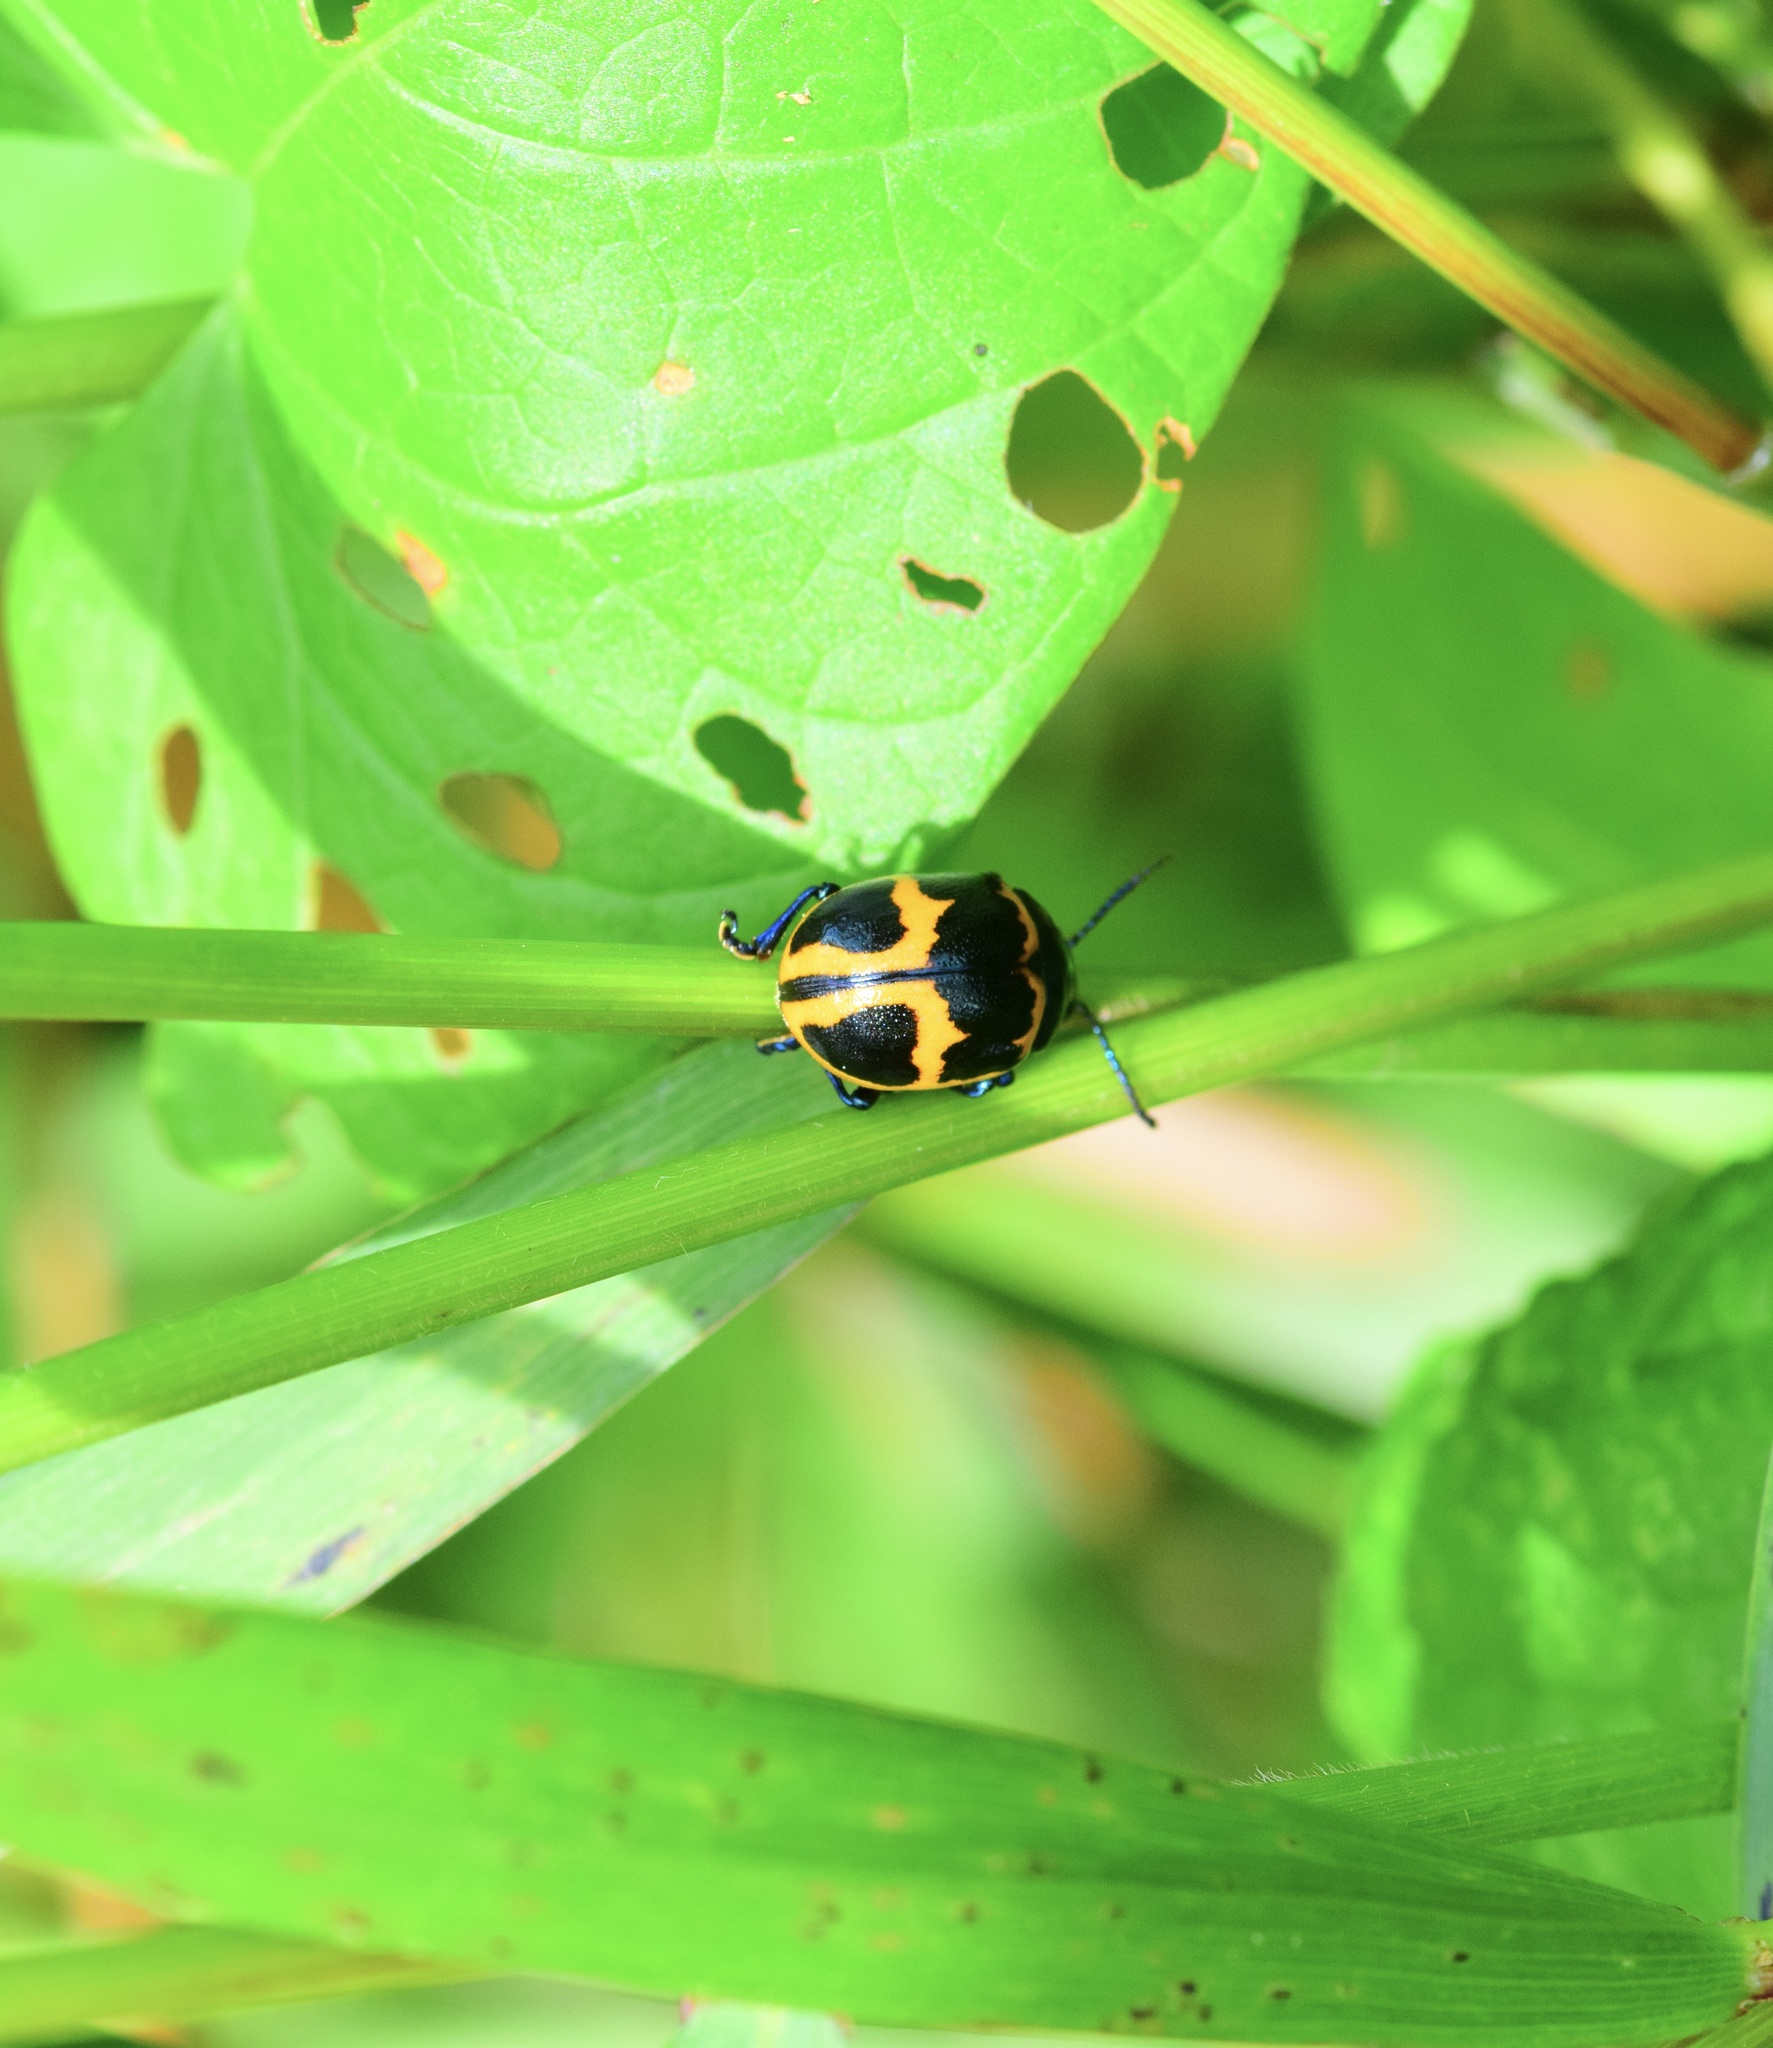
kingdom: Animalia
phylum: Arthropoda
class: Insecta
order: Coleoptera
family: Chrysomelidae
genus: Labidomera
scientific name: Labidomera clivicollis
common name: Swamp milkweed leaf beetle
